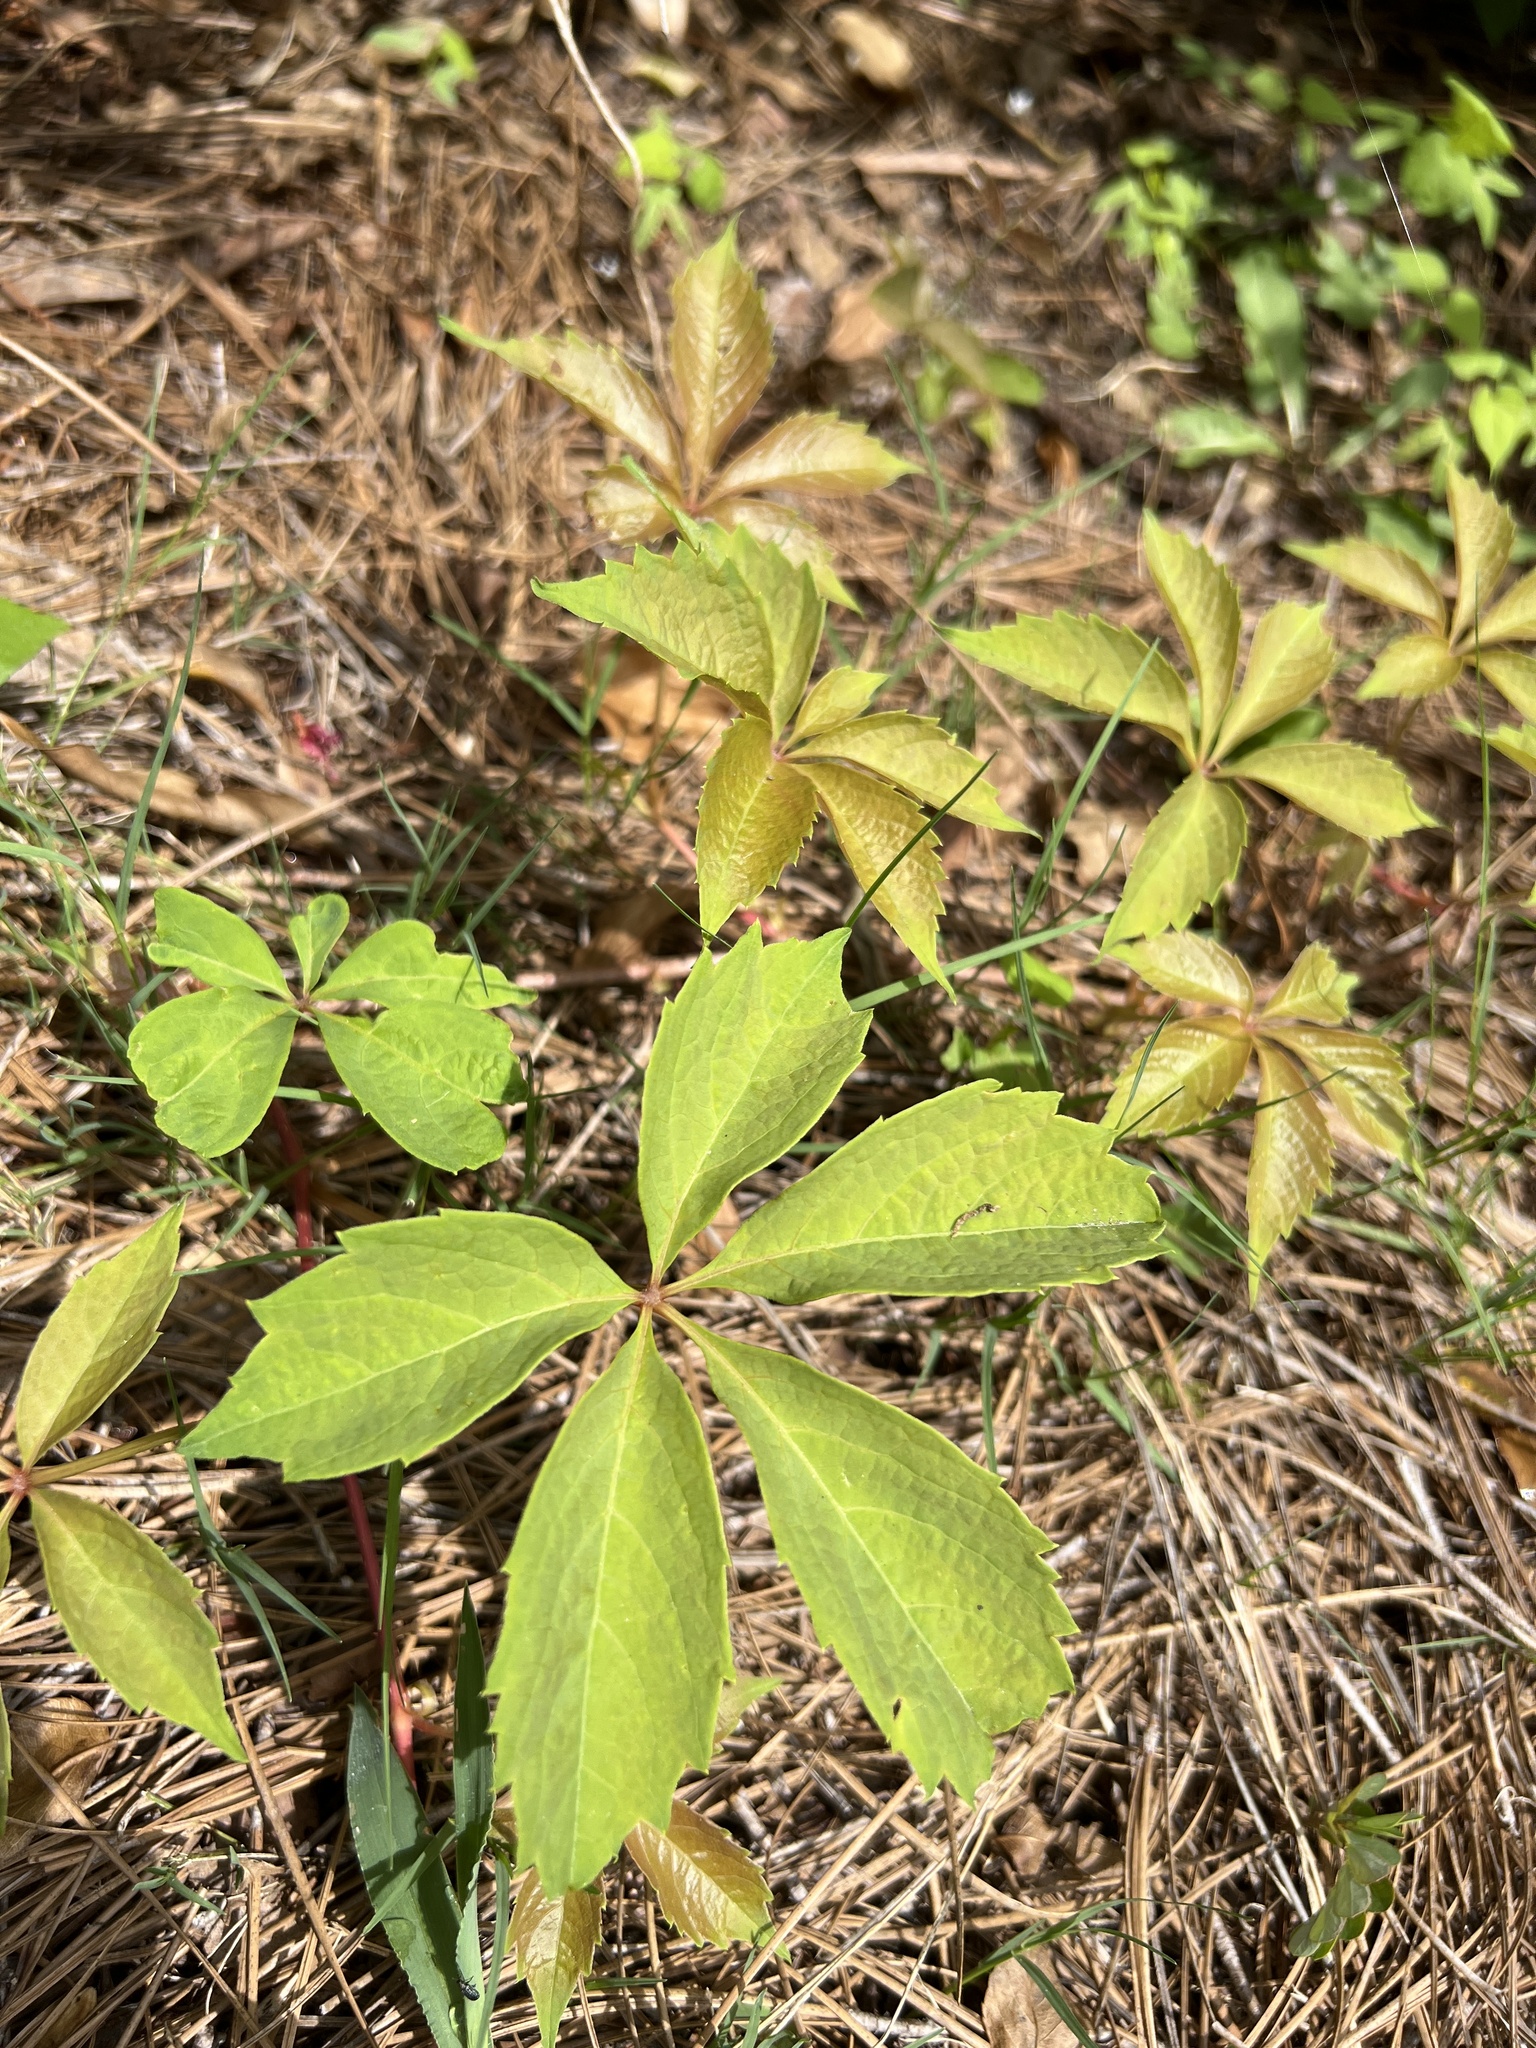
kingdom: Plantae
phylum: Tracheophyta
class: Magnoliopsida
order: Vitales
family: Vitaceae
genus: Parthenocissus
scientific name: Parthenocissus quinquefolia
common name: Virginia-creeper
